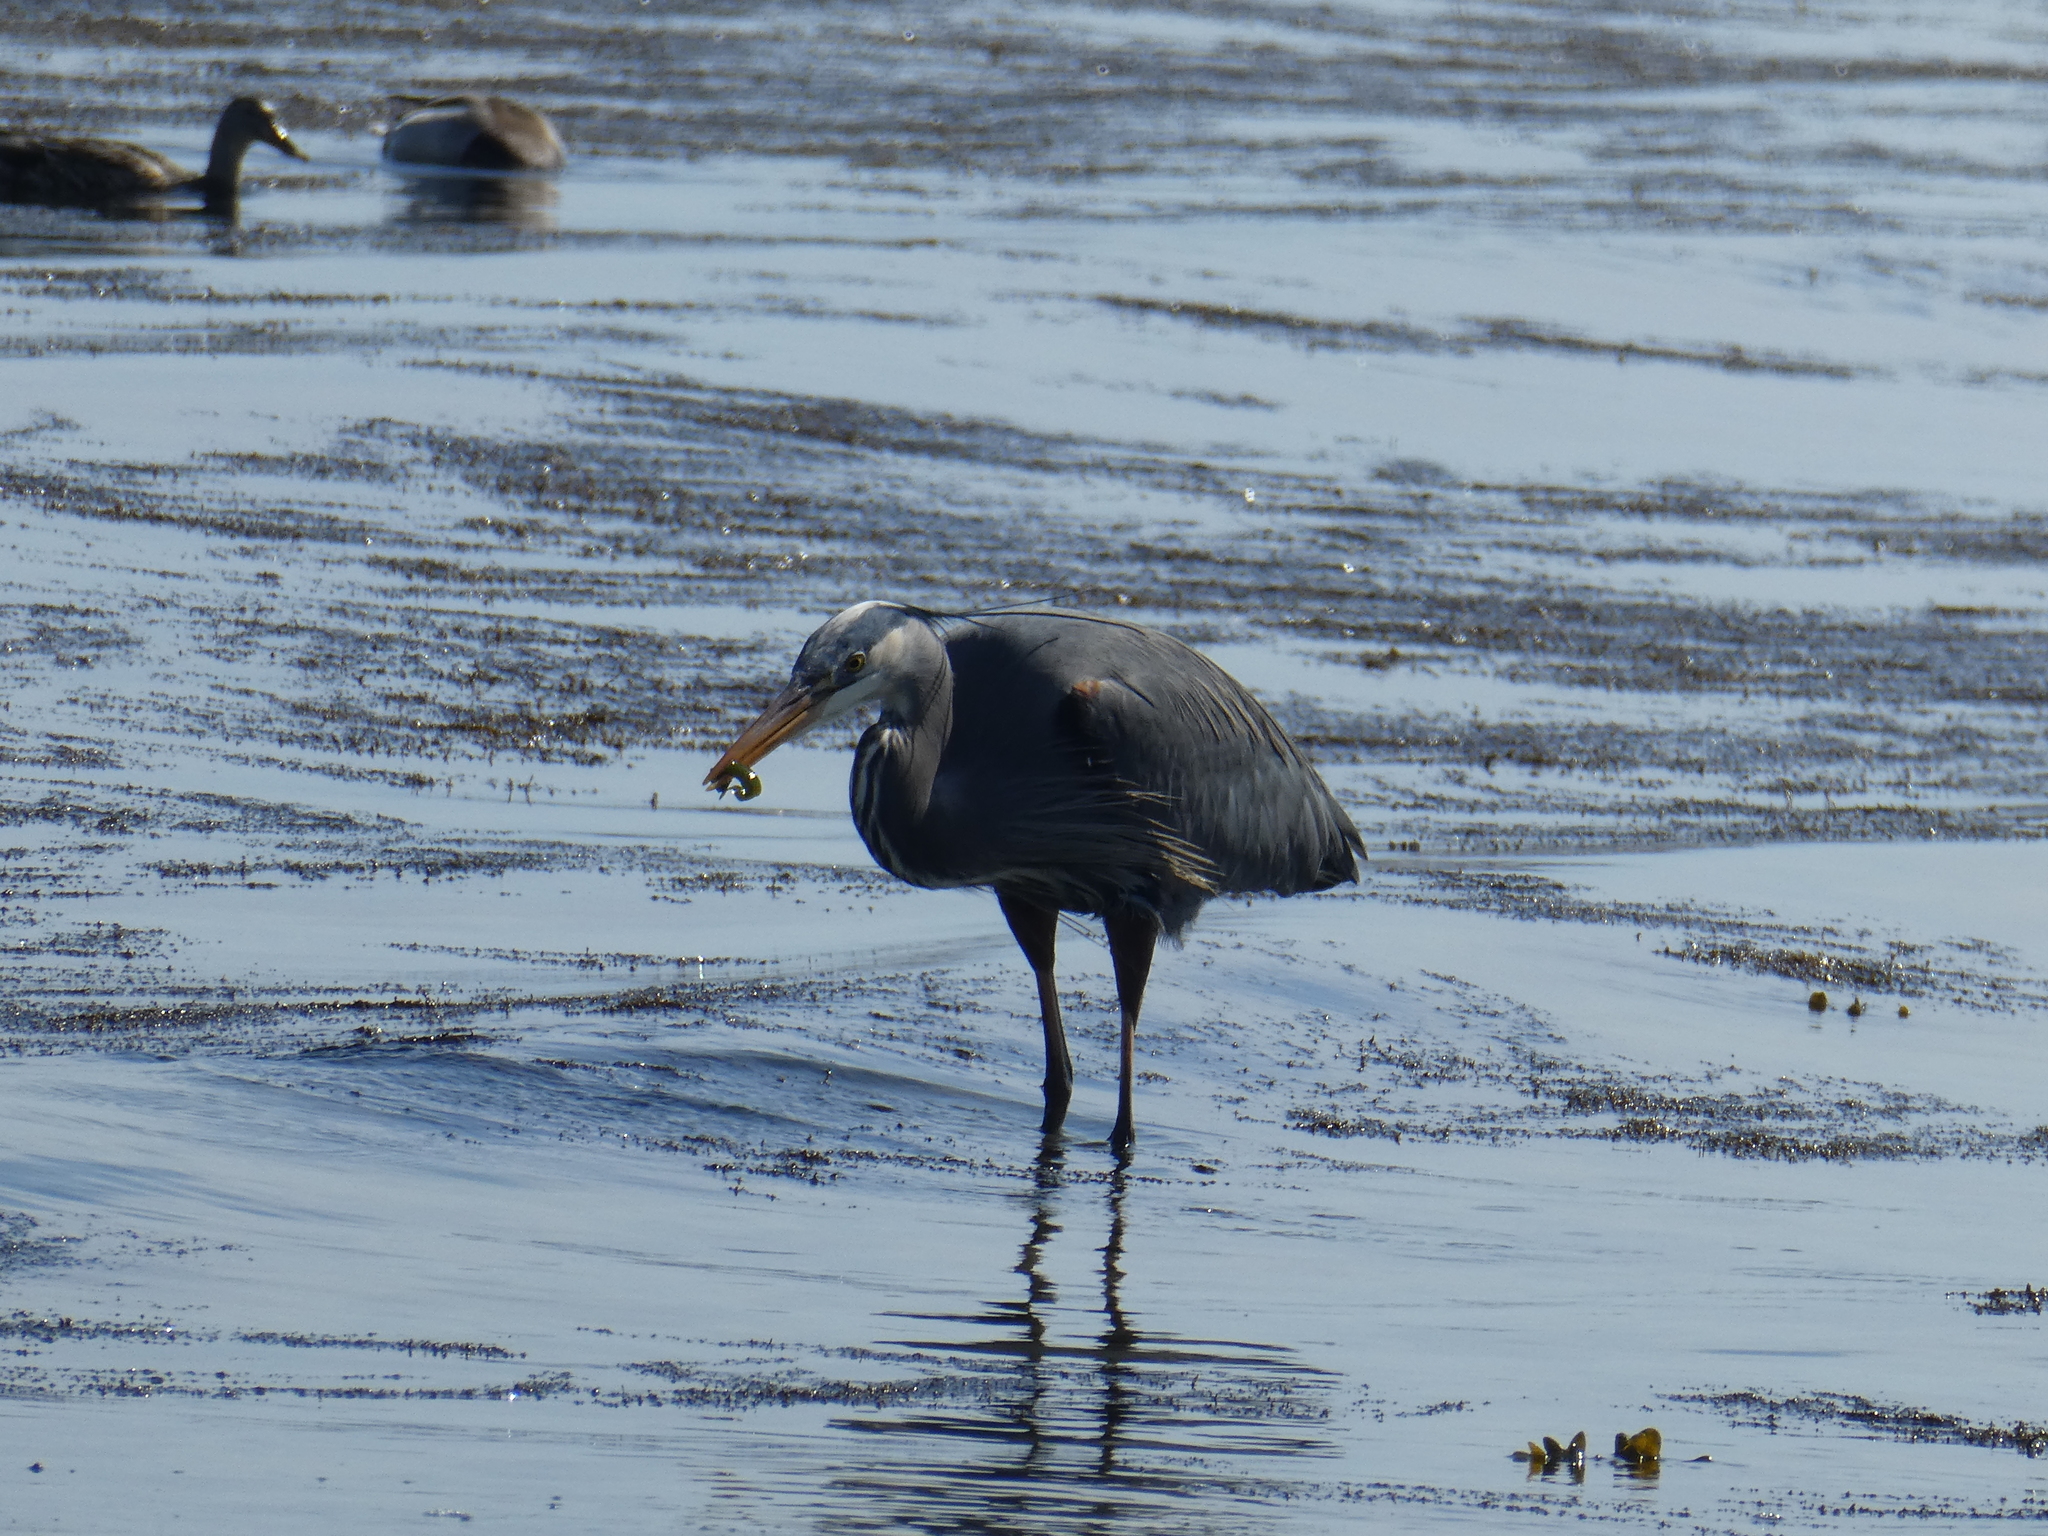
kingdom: Animalia
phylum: Chordata
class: Aves
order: Pelecaniformes
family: Ardeidae
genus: Ardea
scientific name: Ardea herodias
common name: Great blue heron
